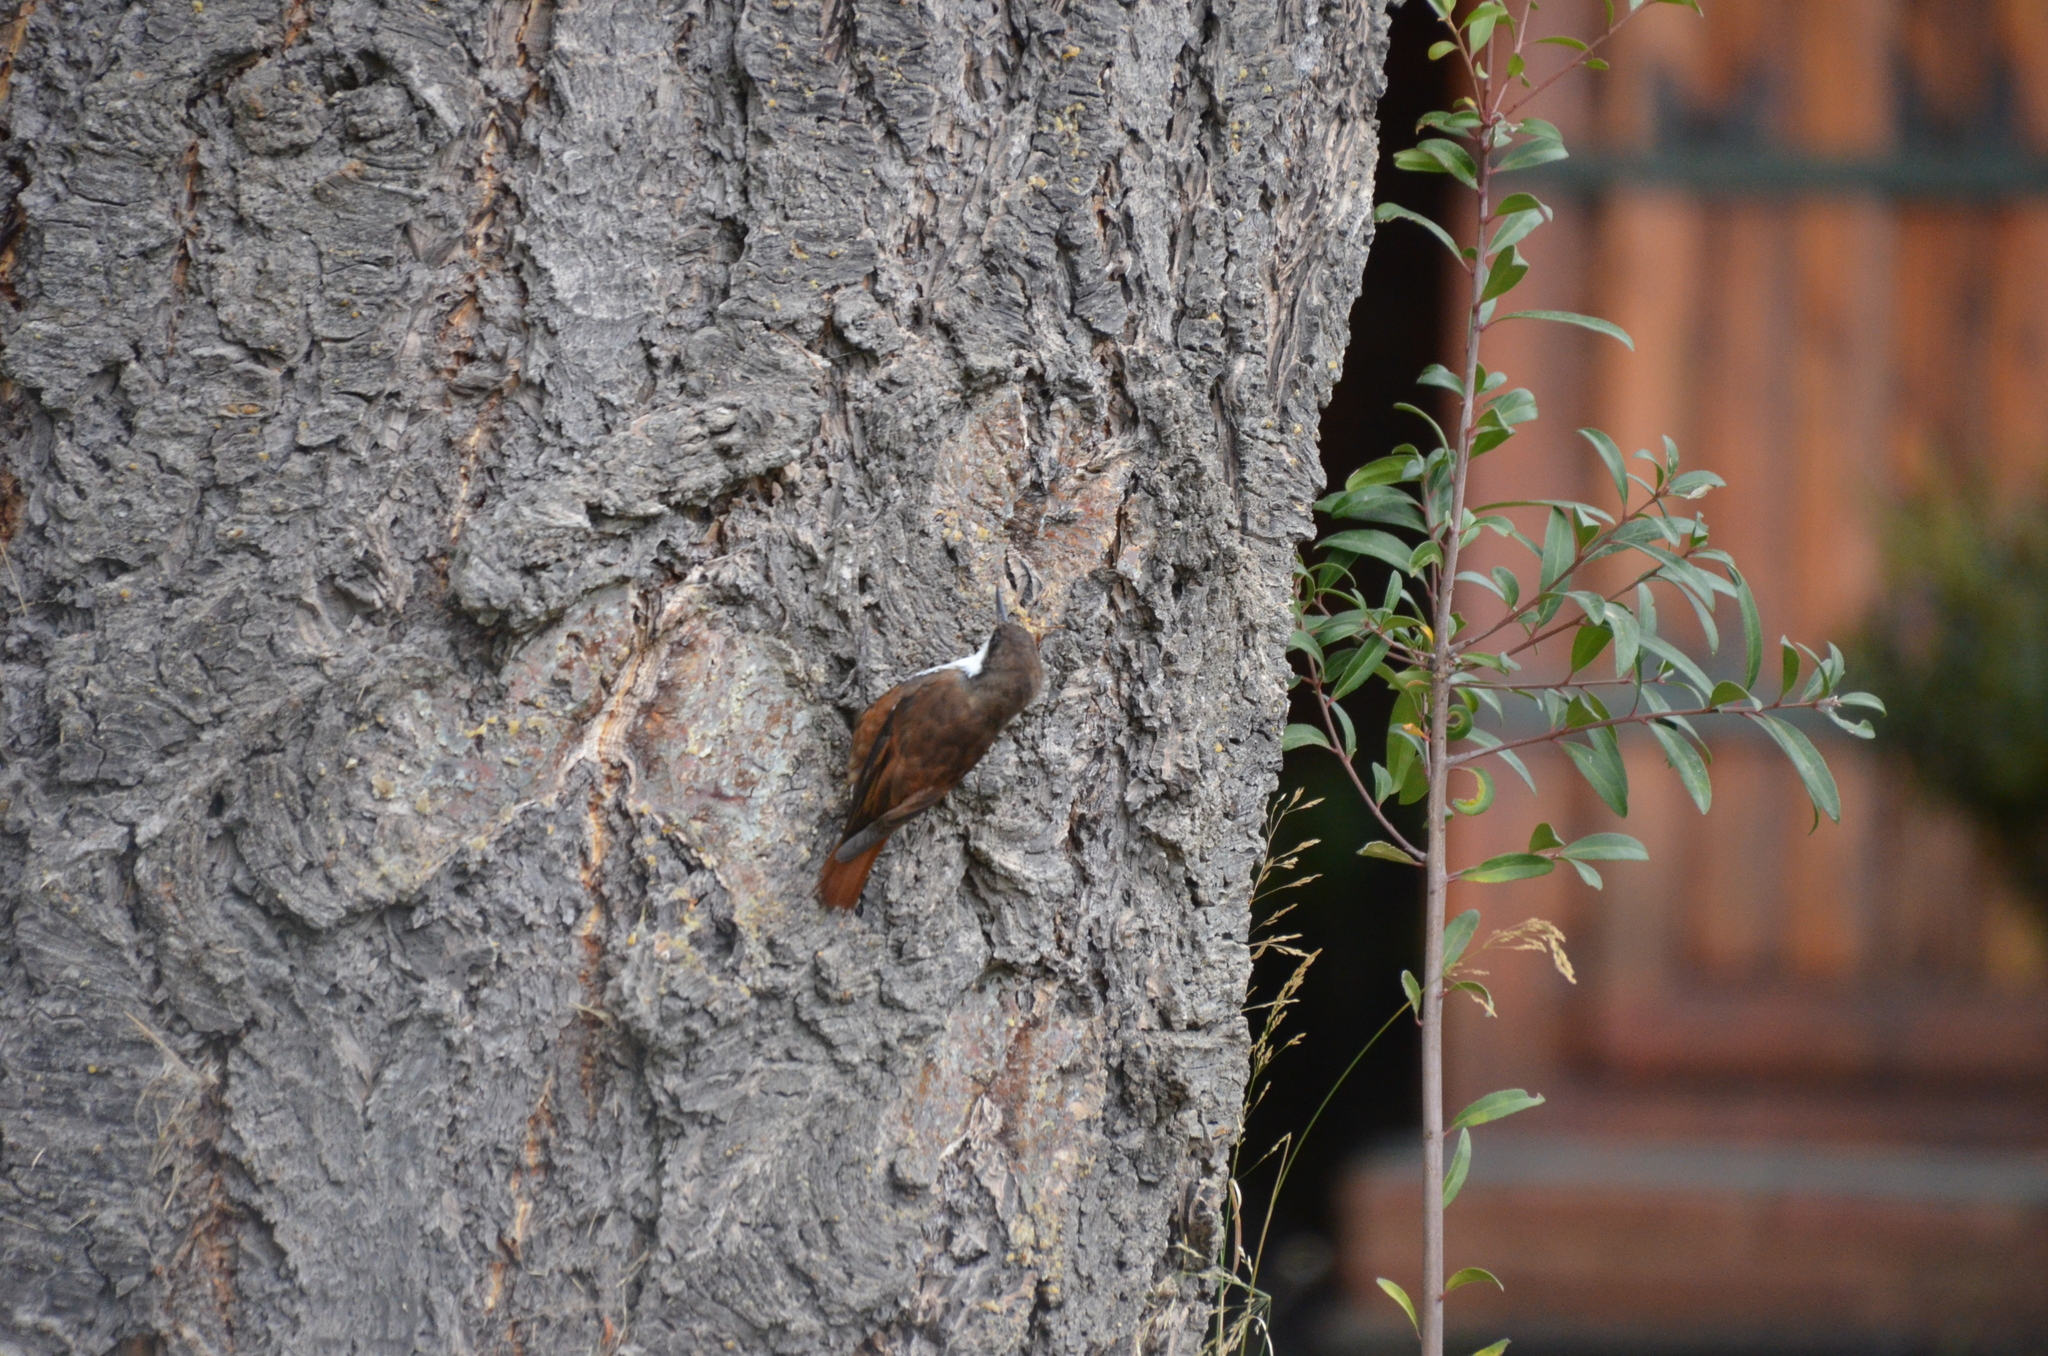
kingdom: Animalia
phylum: Chordata
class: Aves
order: Passeriformes
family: Furnariidae
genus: Pygarrhichas
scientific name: Pygarrhichas albogularis
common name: White-throated treerunner
